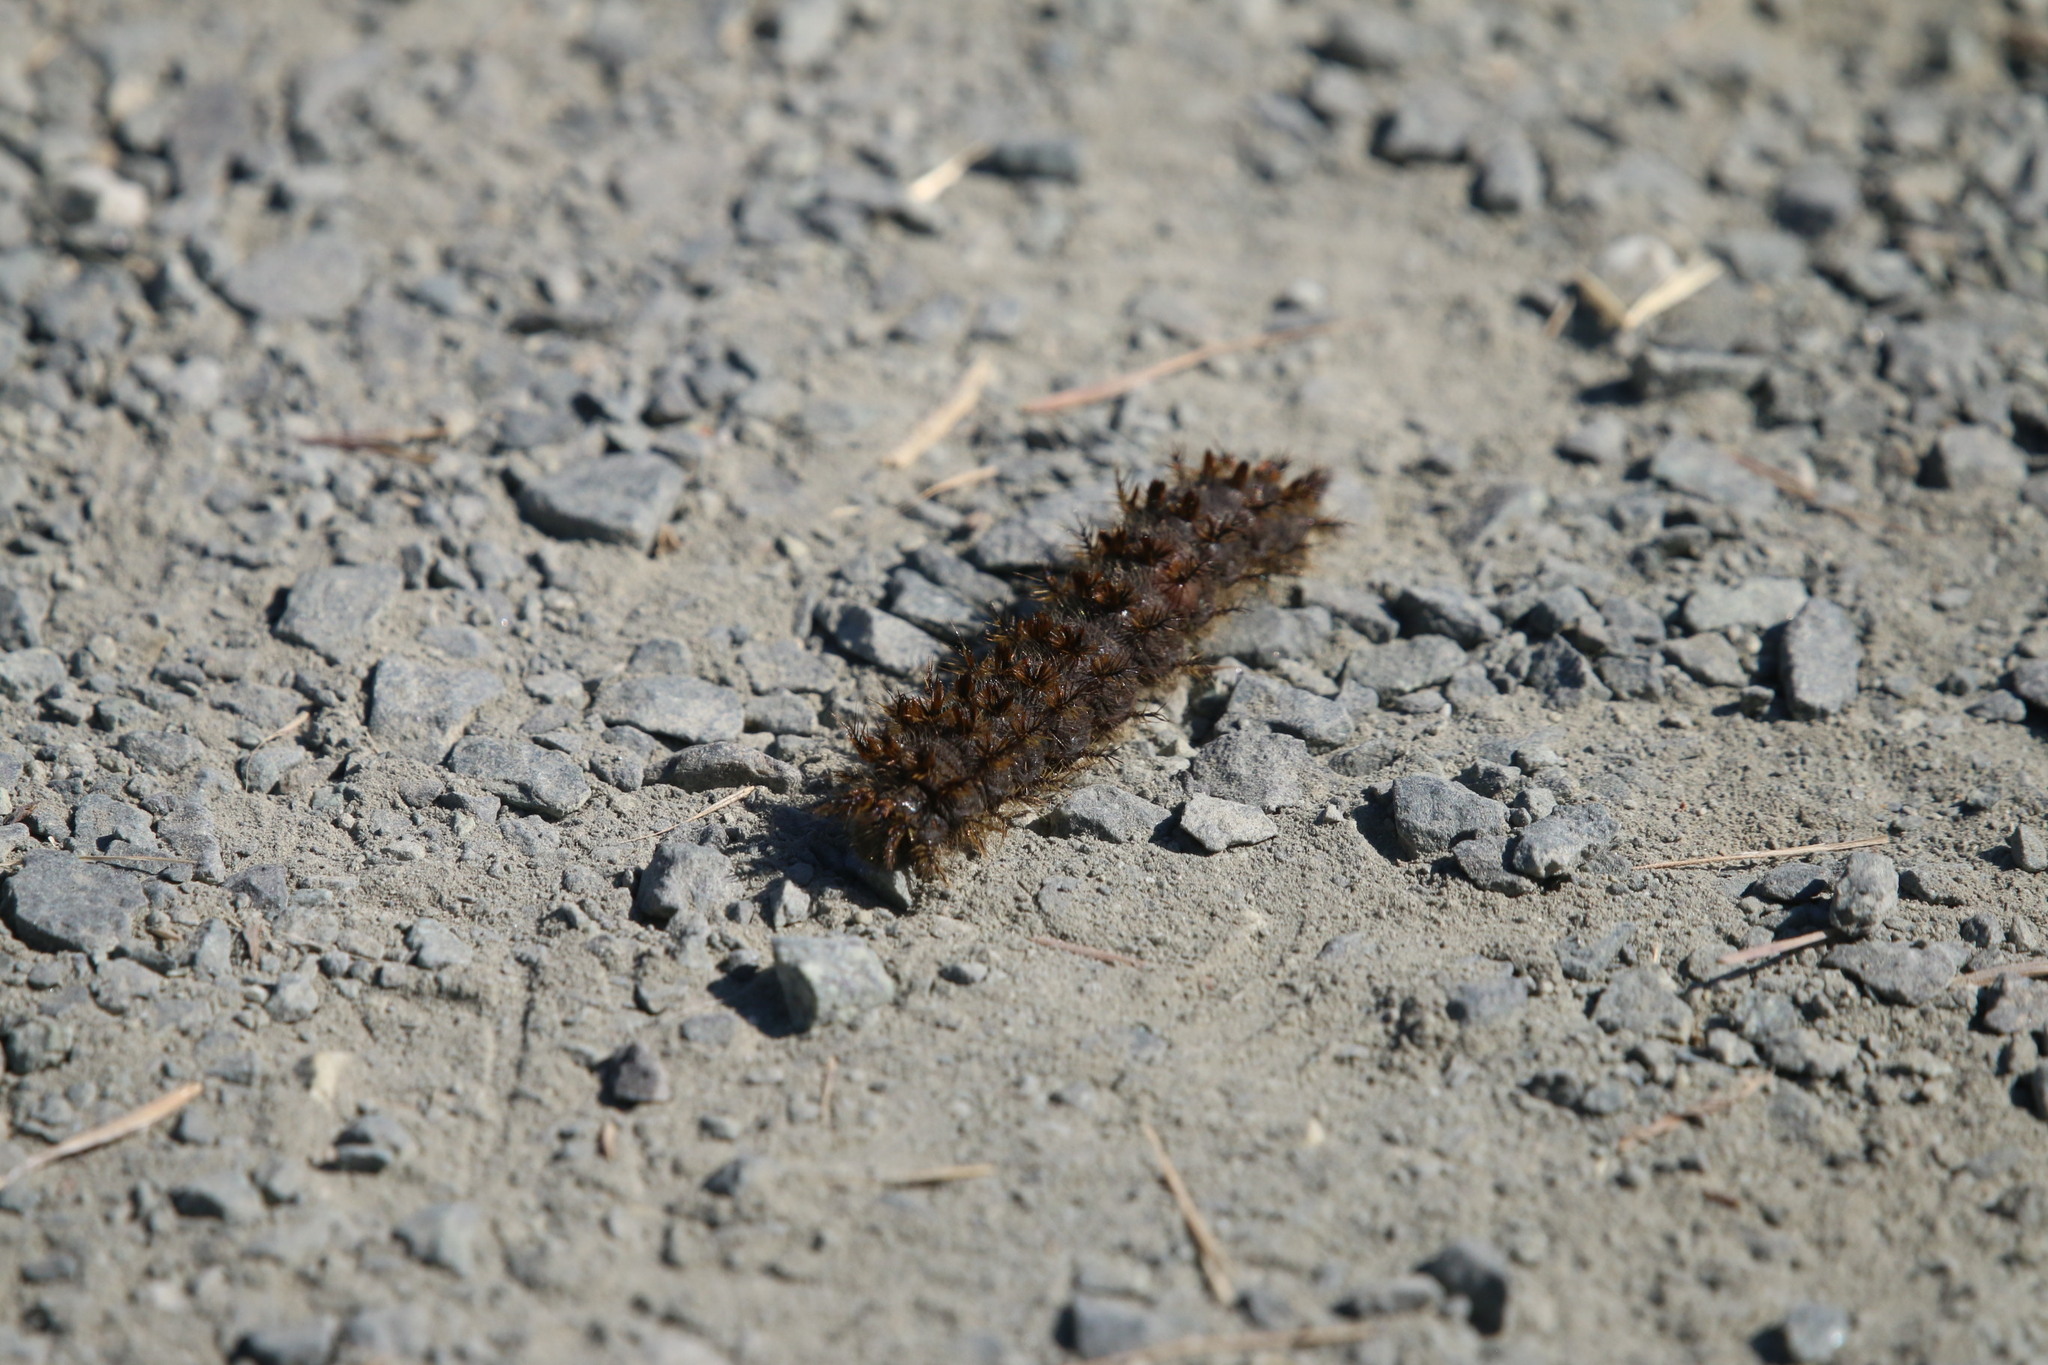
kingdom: Animalia
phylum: Arthropoda
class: Insecta
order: Lepidoptera
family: Saturniidae
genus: Hemileuca
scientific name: Hemileuca eglanterina
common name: Western sheepmoth
